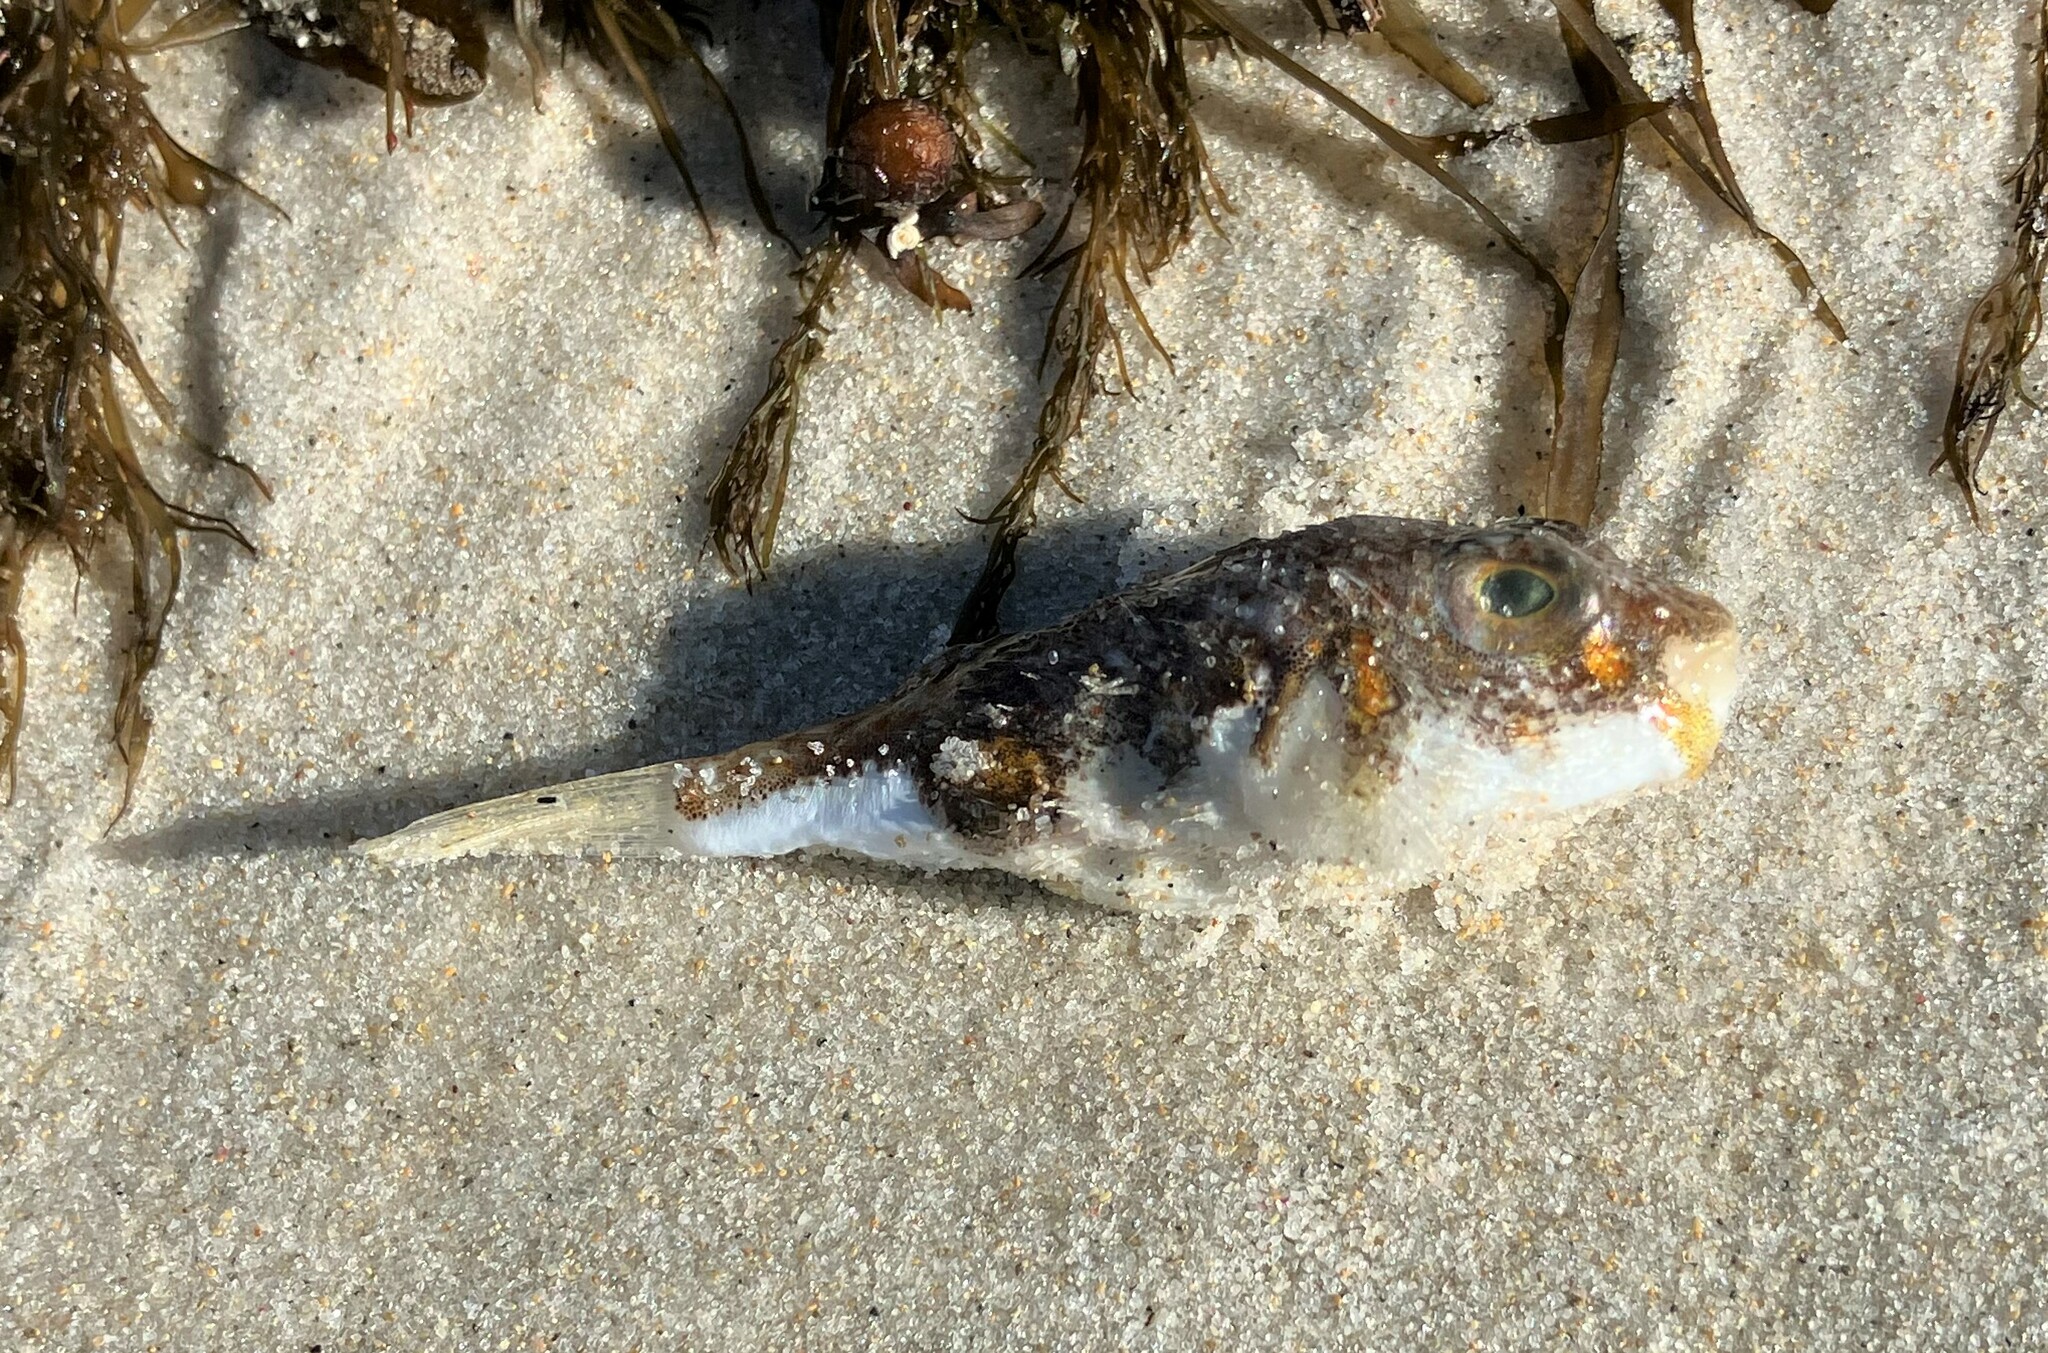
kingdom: Animalia
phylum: Chordata
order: Tetraodontiformes
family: Tetraodontidae
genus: Polyspina
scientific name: Polyspina piosae
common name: Orange-barred pufferfish
